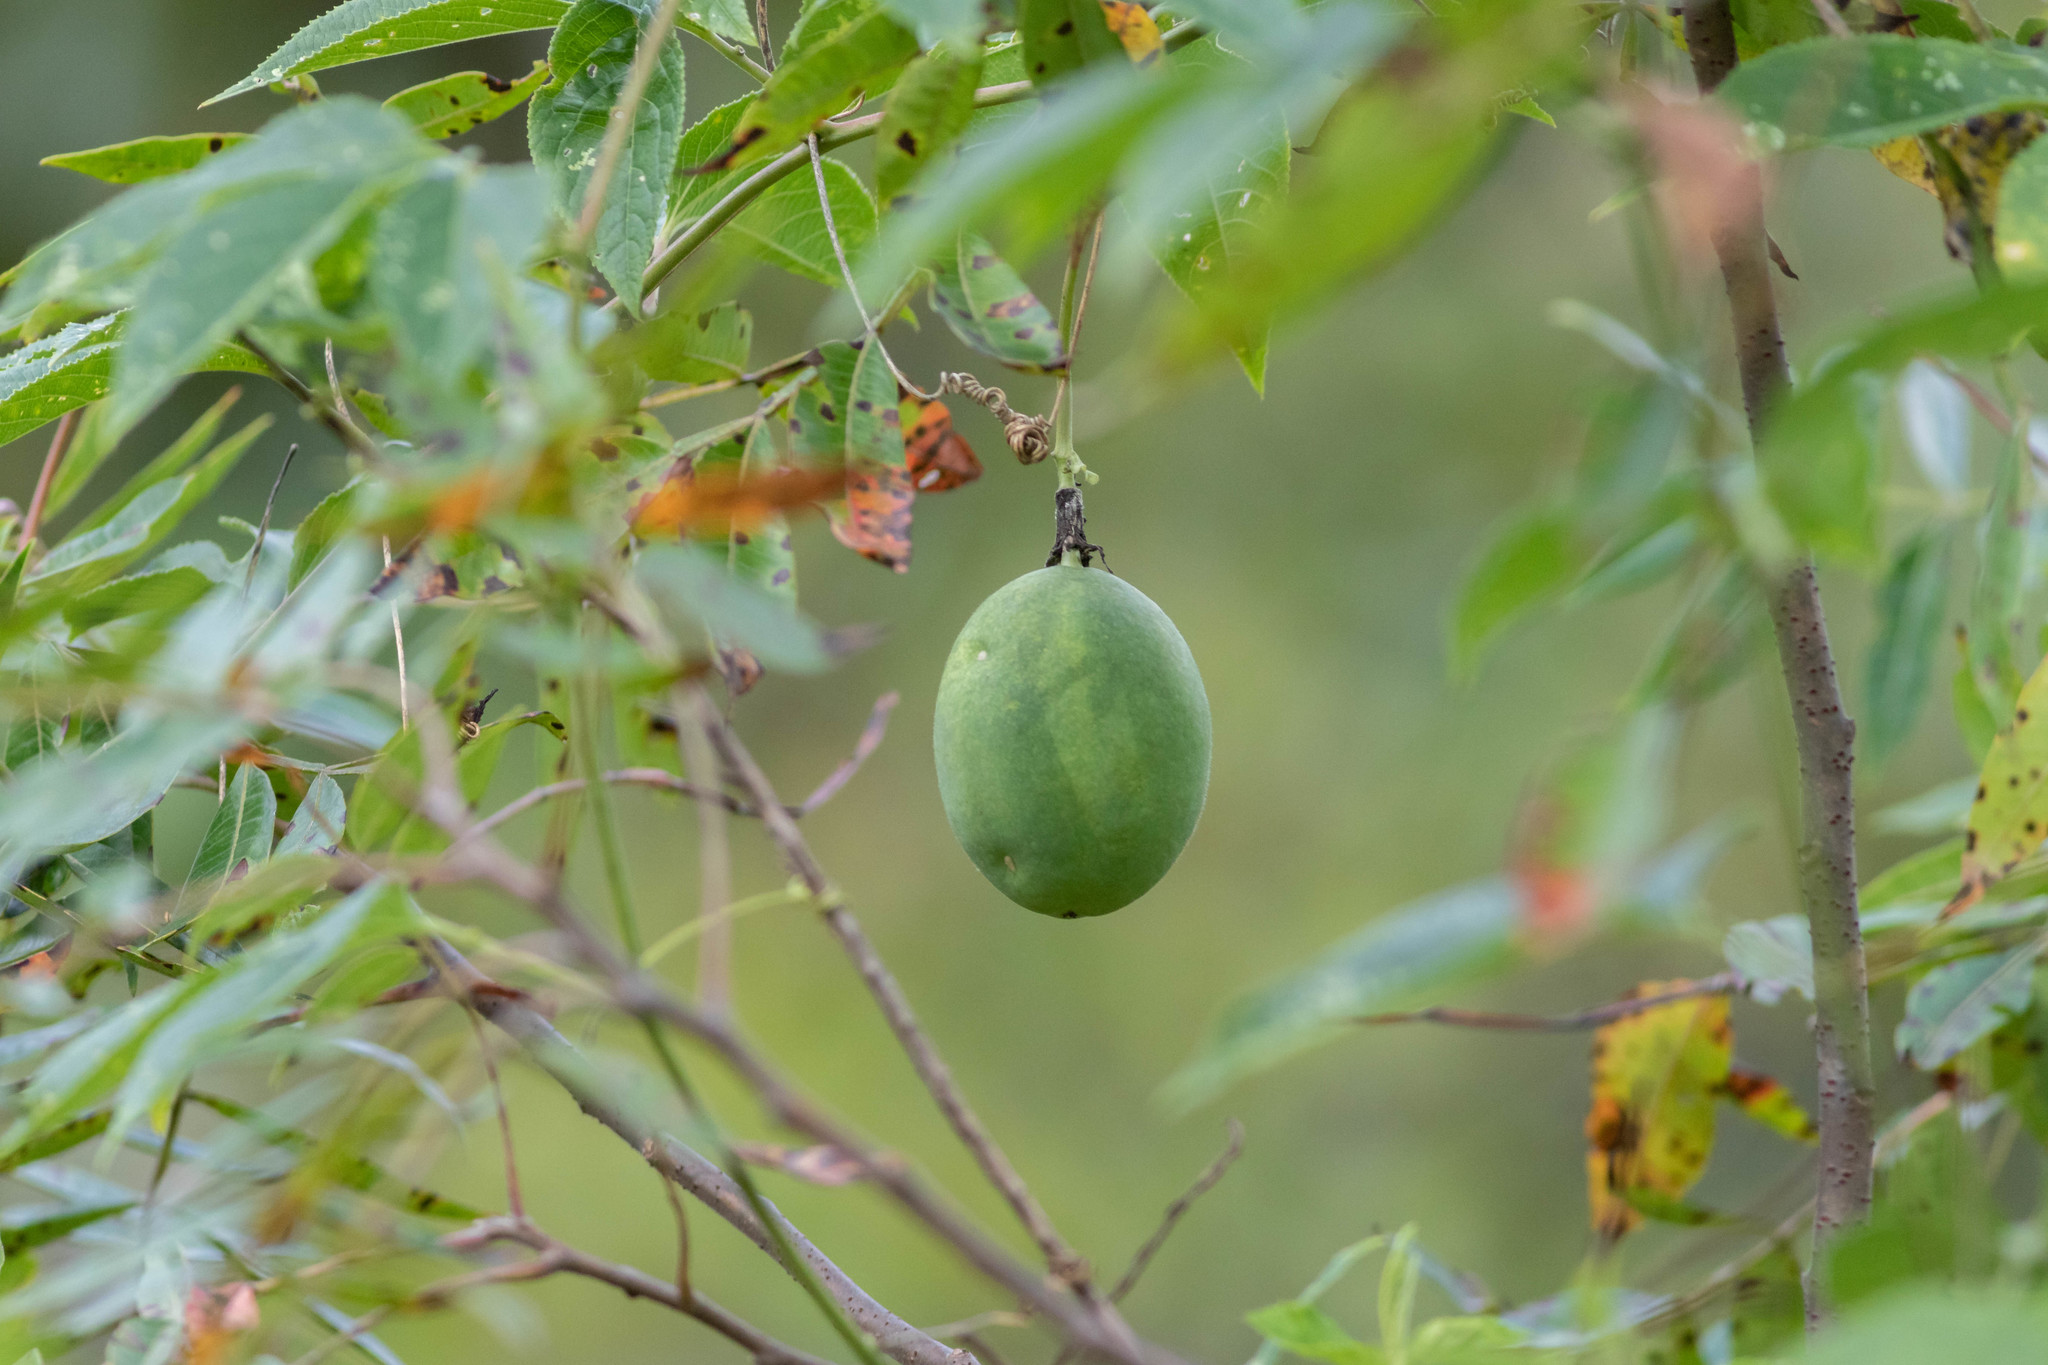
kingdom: Plantae
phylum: Tracheophyta
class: Magnoliopsida
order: Malpighiales
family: Passifloraceae
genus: Passiflora
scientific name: Passiflora incarnata
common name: Apricot-vine
